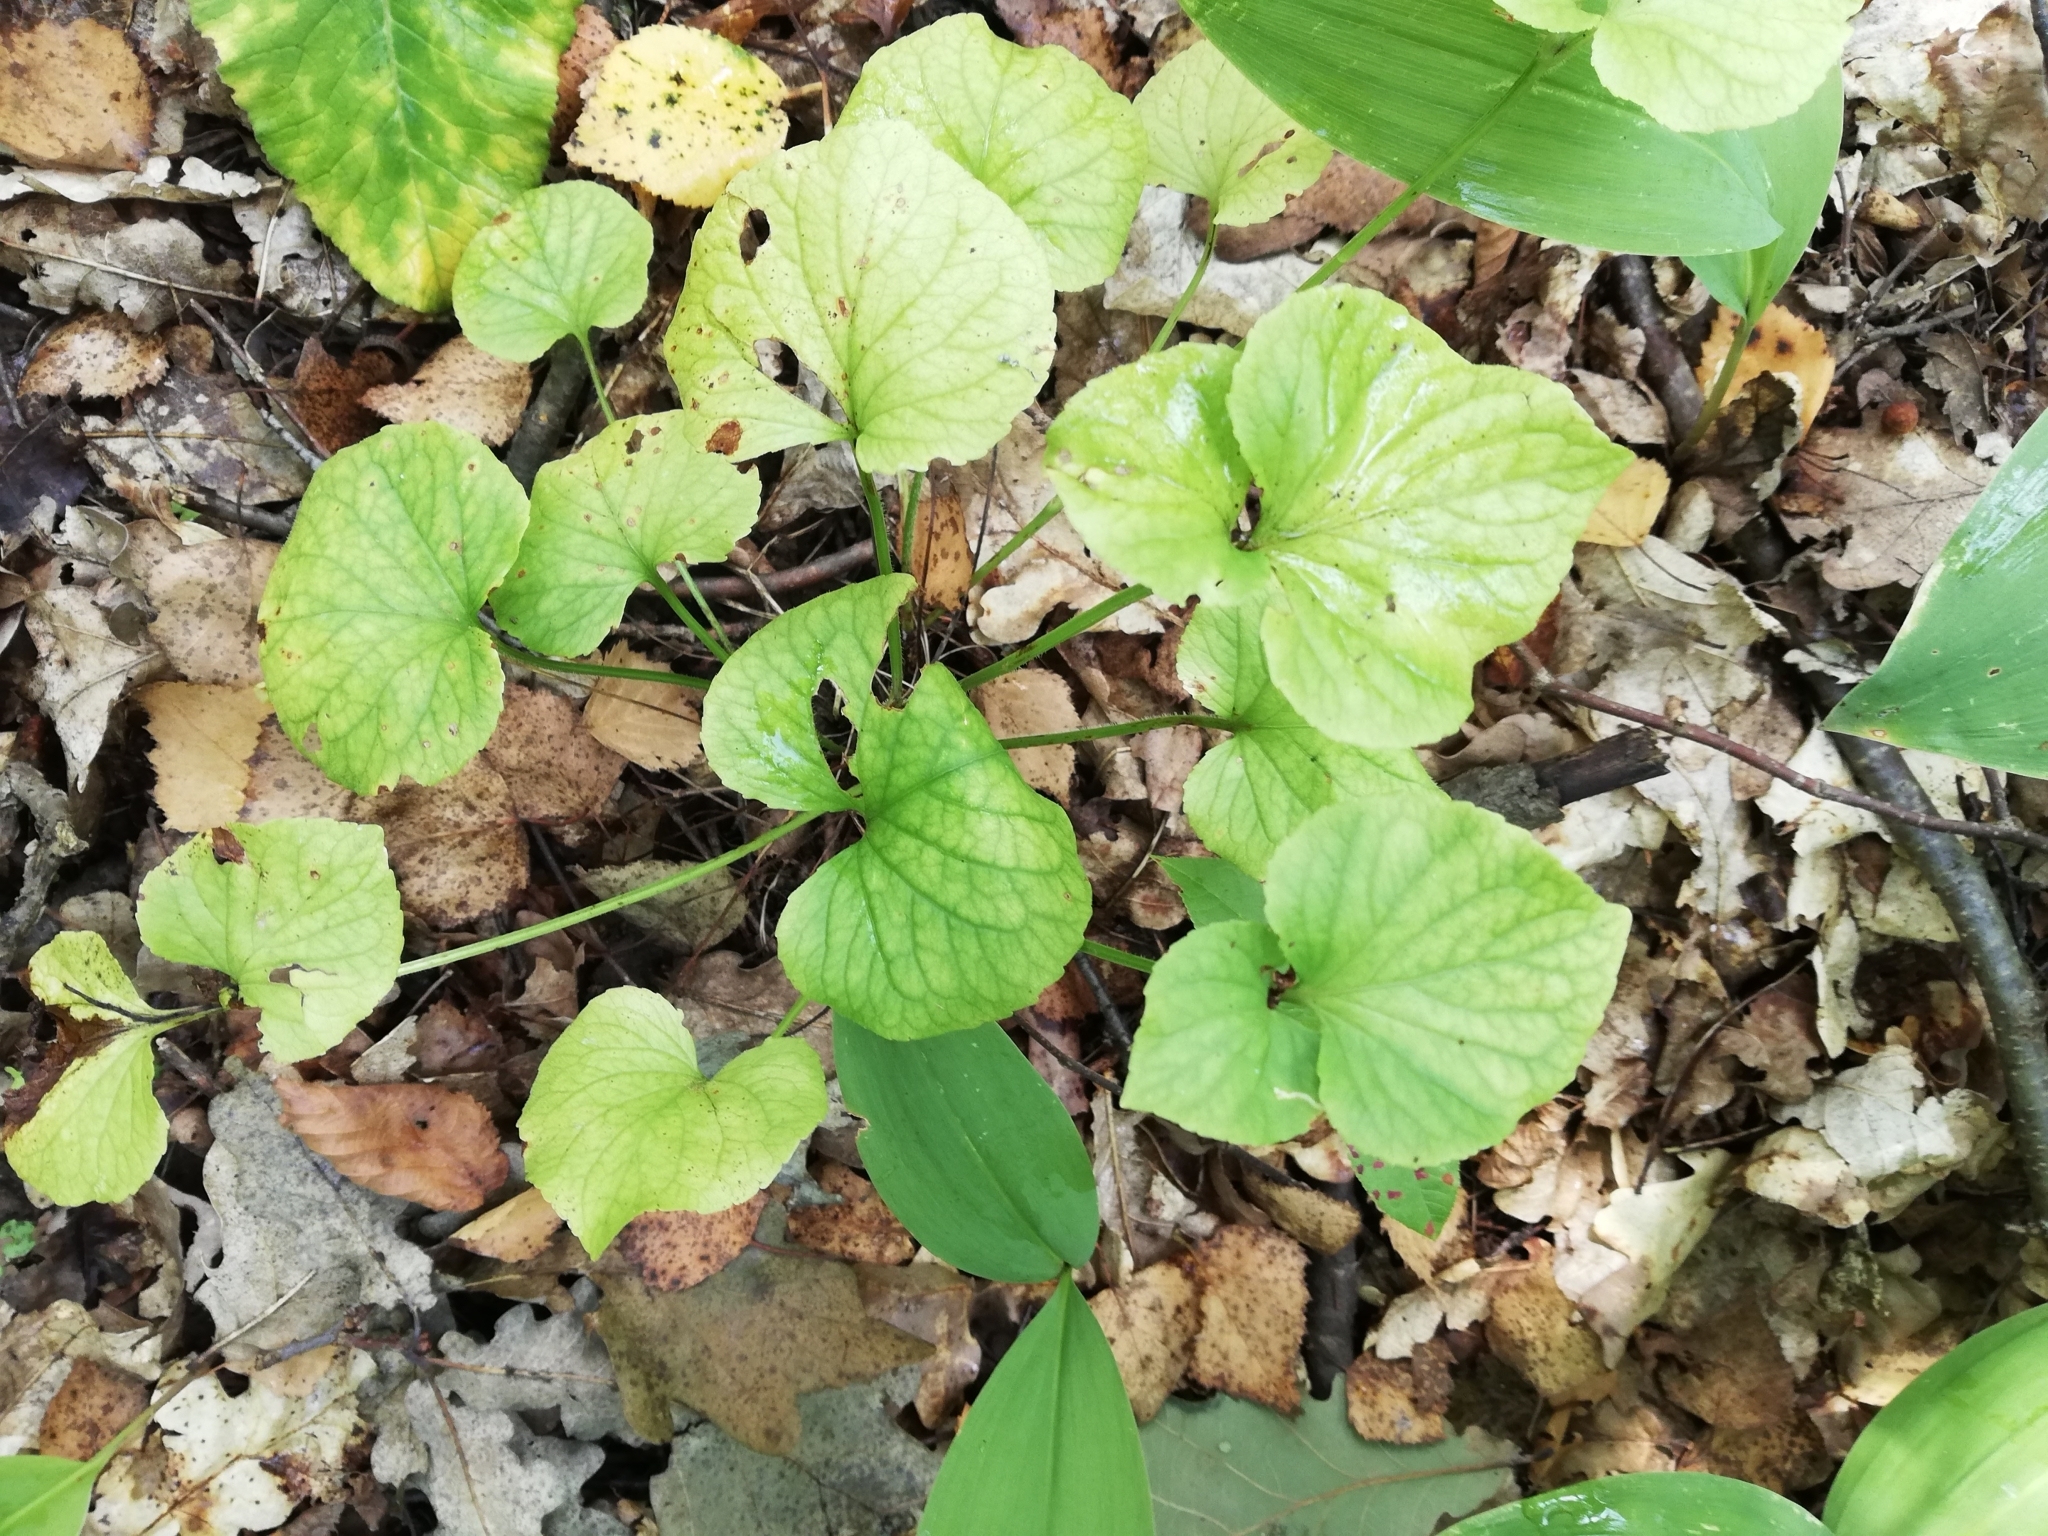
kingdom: Plantae
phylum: Tracheophyta
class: Magnoliopsida
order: Malpighiales
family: Violaceae
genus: Viola
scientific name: Viola mirabilis
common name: Wonder violet
